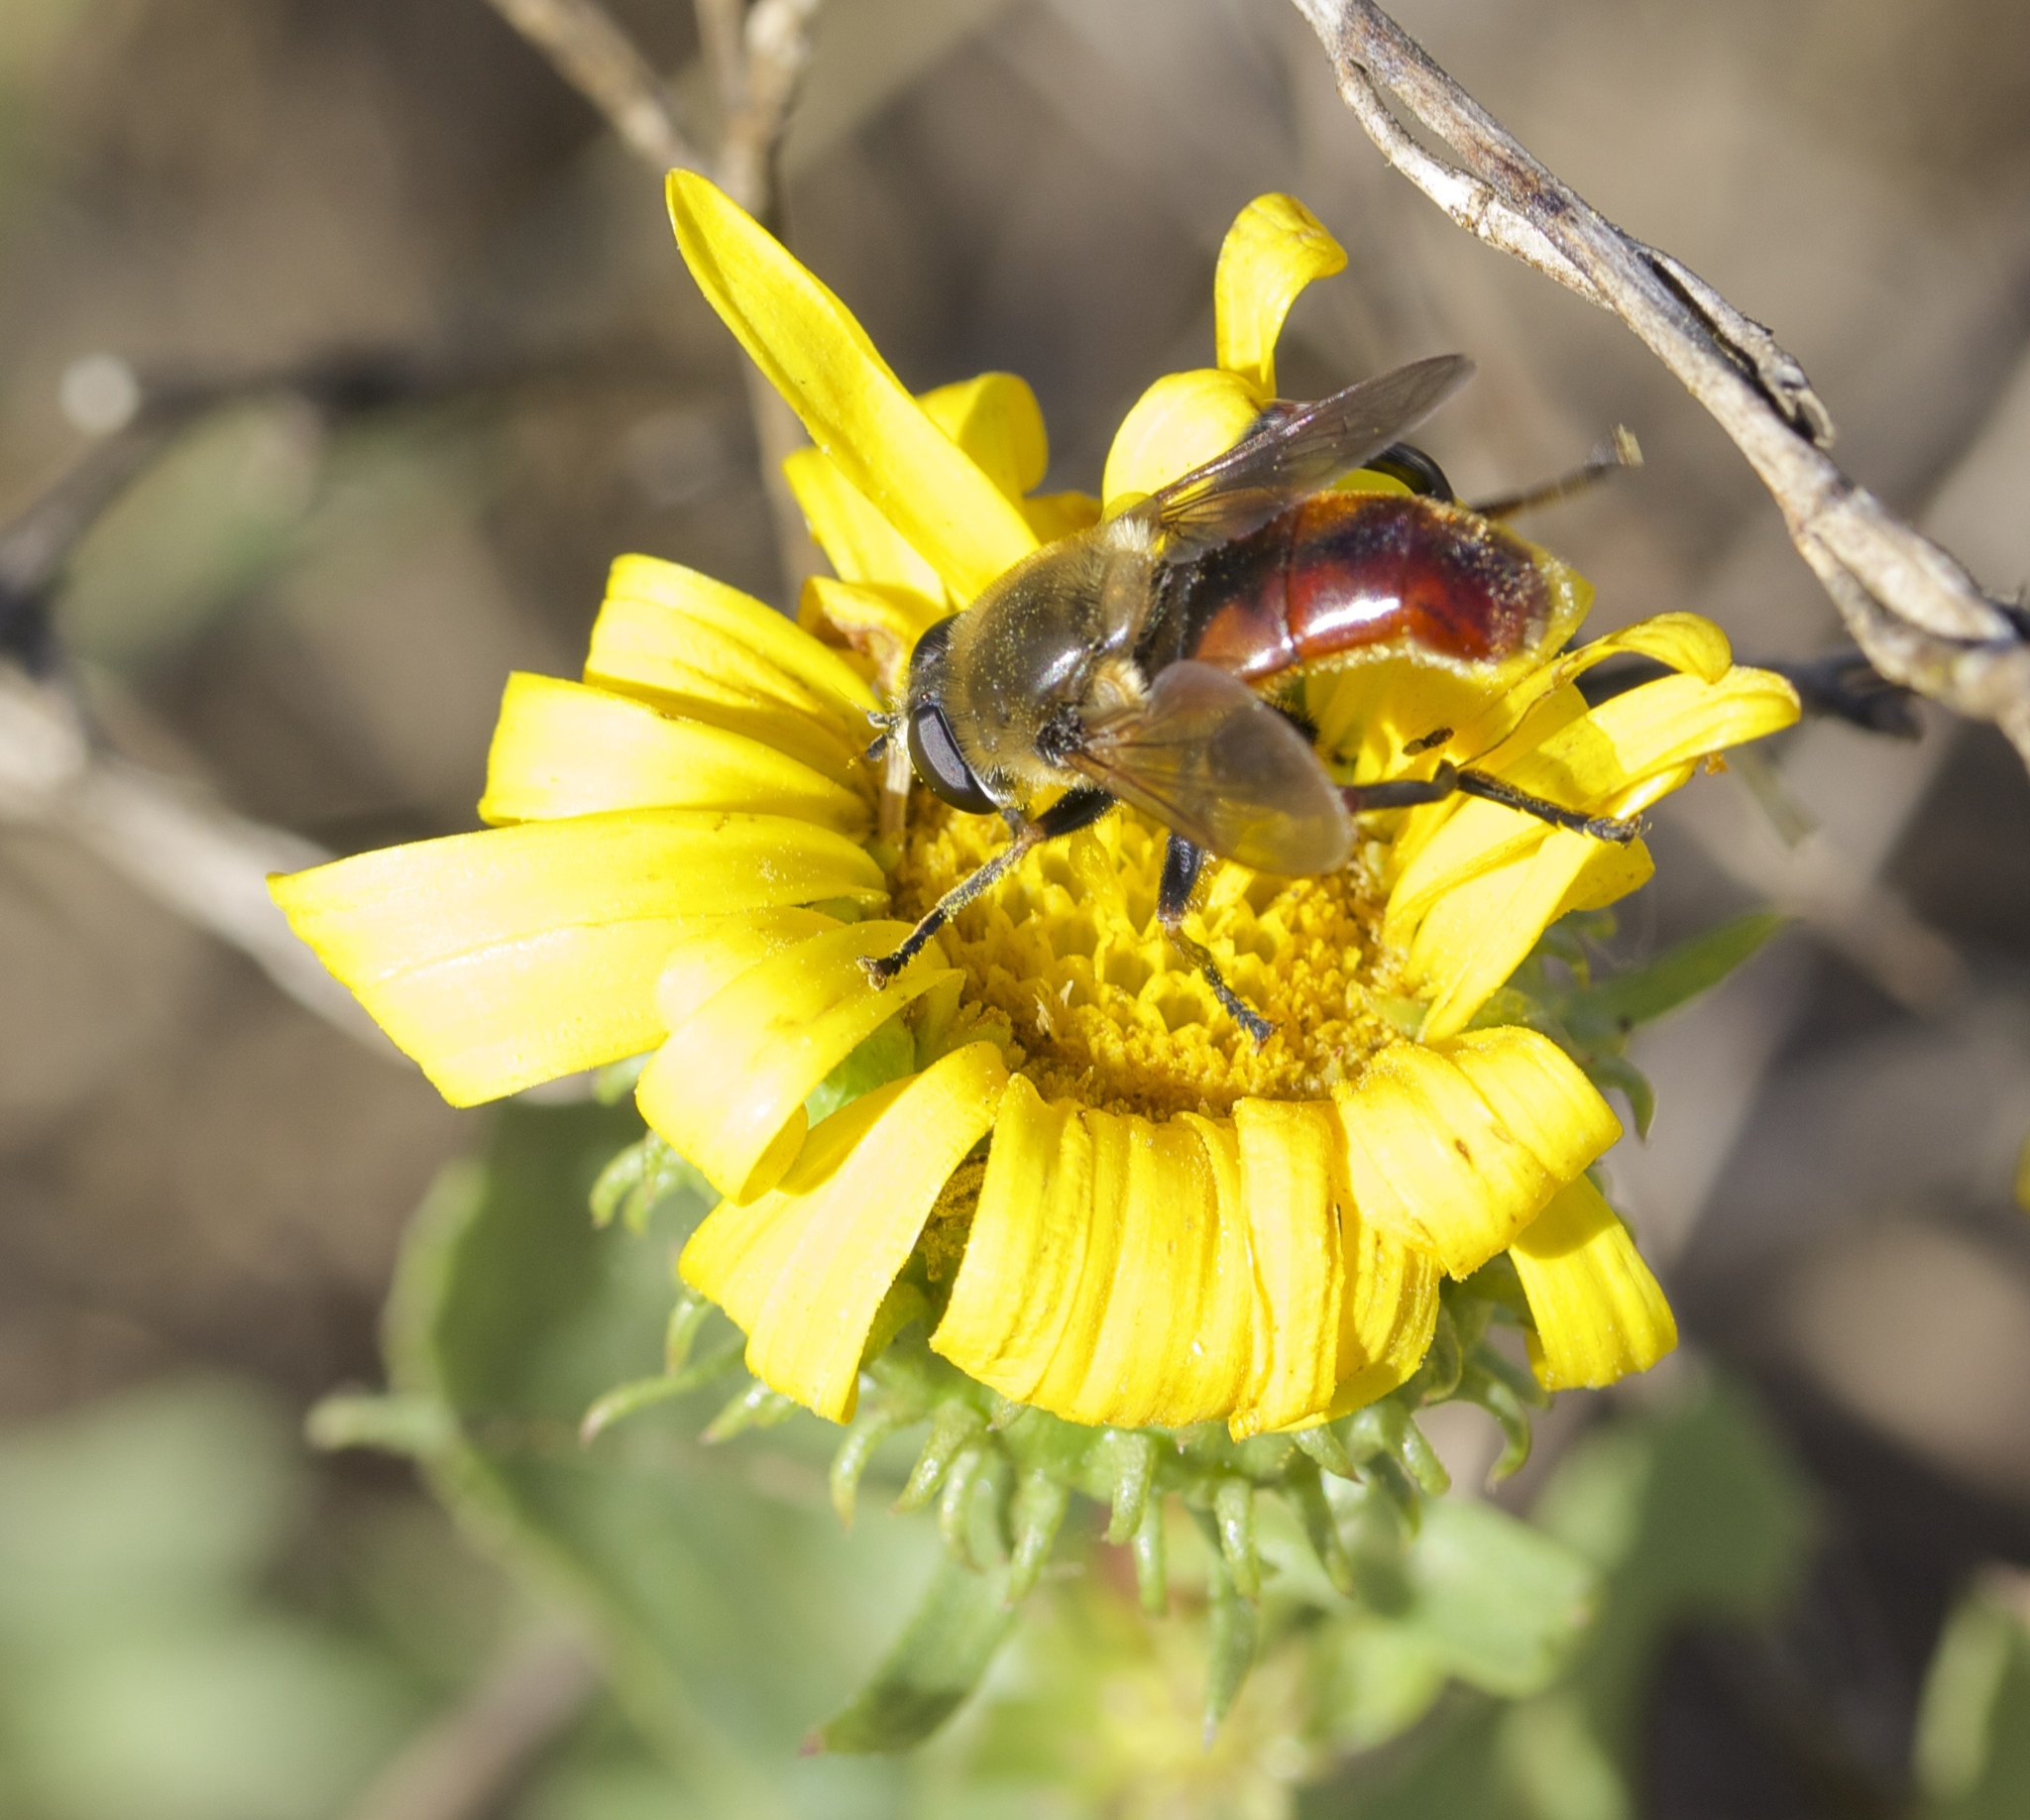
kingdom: Animalia
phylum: Arthropoda
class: Insecta
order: Diptera
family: Syrphidae
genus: Polydontomyia
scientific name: Polydontomyia curvipes
